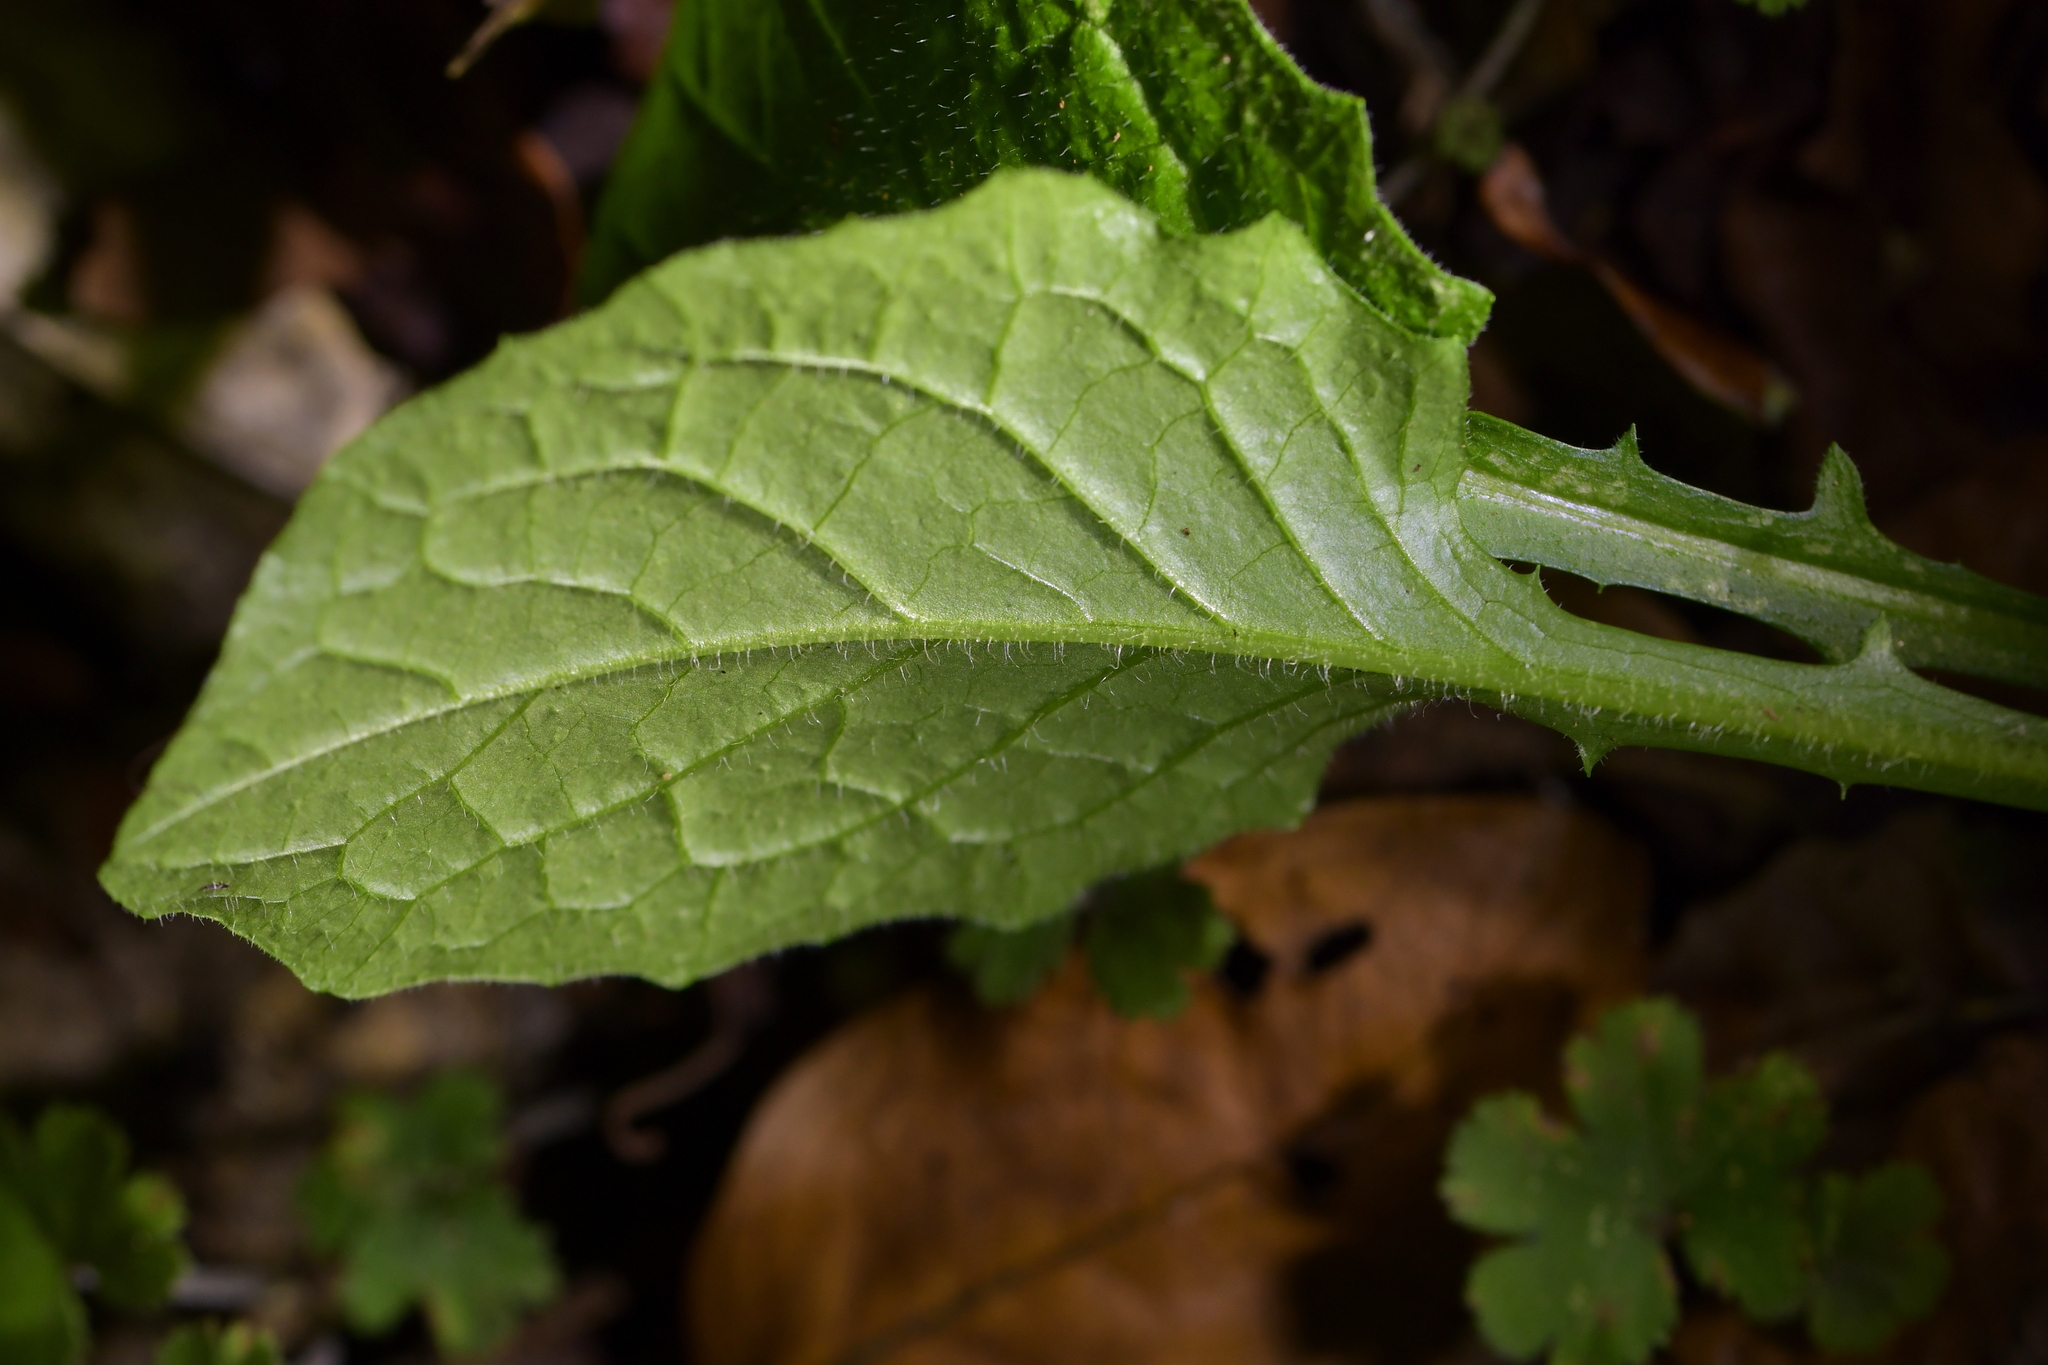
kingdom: Plantae
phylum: Tracheophyta
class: Magnoliopsida
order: Asterales
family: Asteraceae
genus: Lapsana
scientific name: Lapsana communis
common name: Nipplewort
